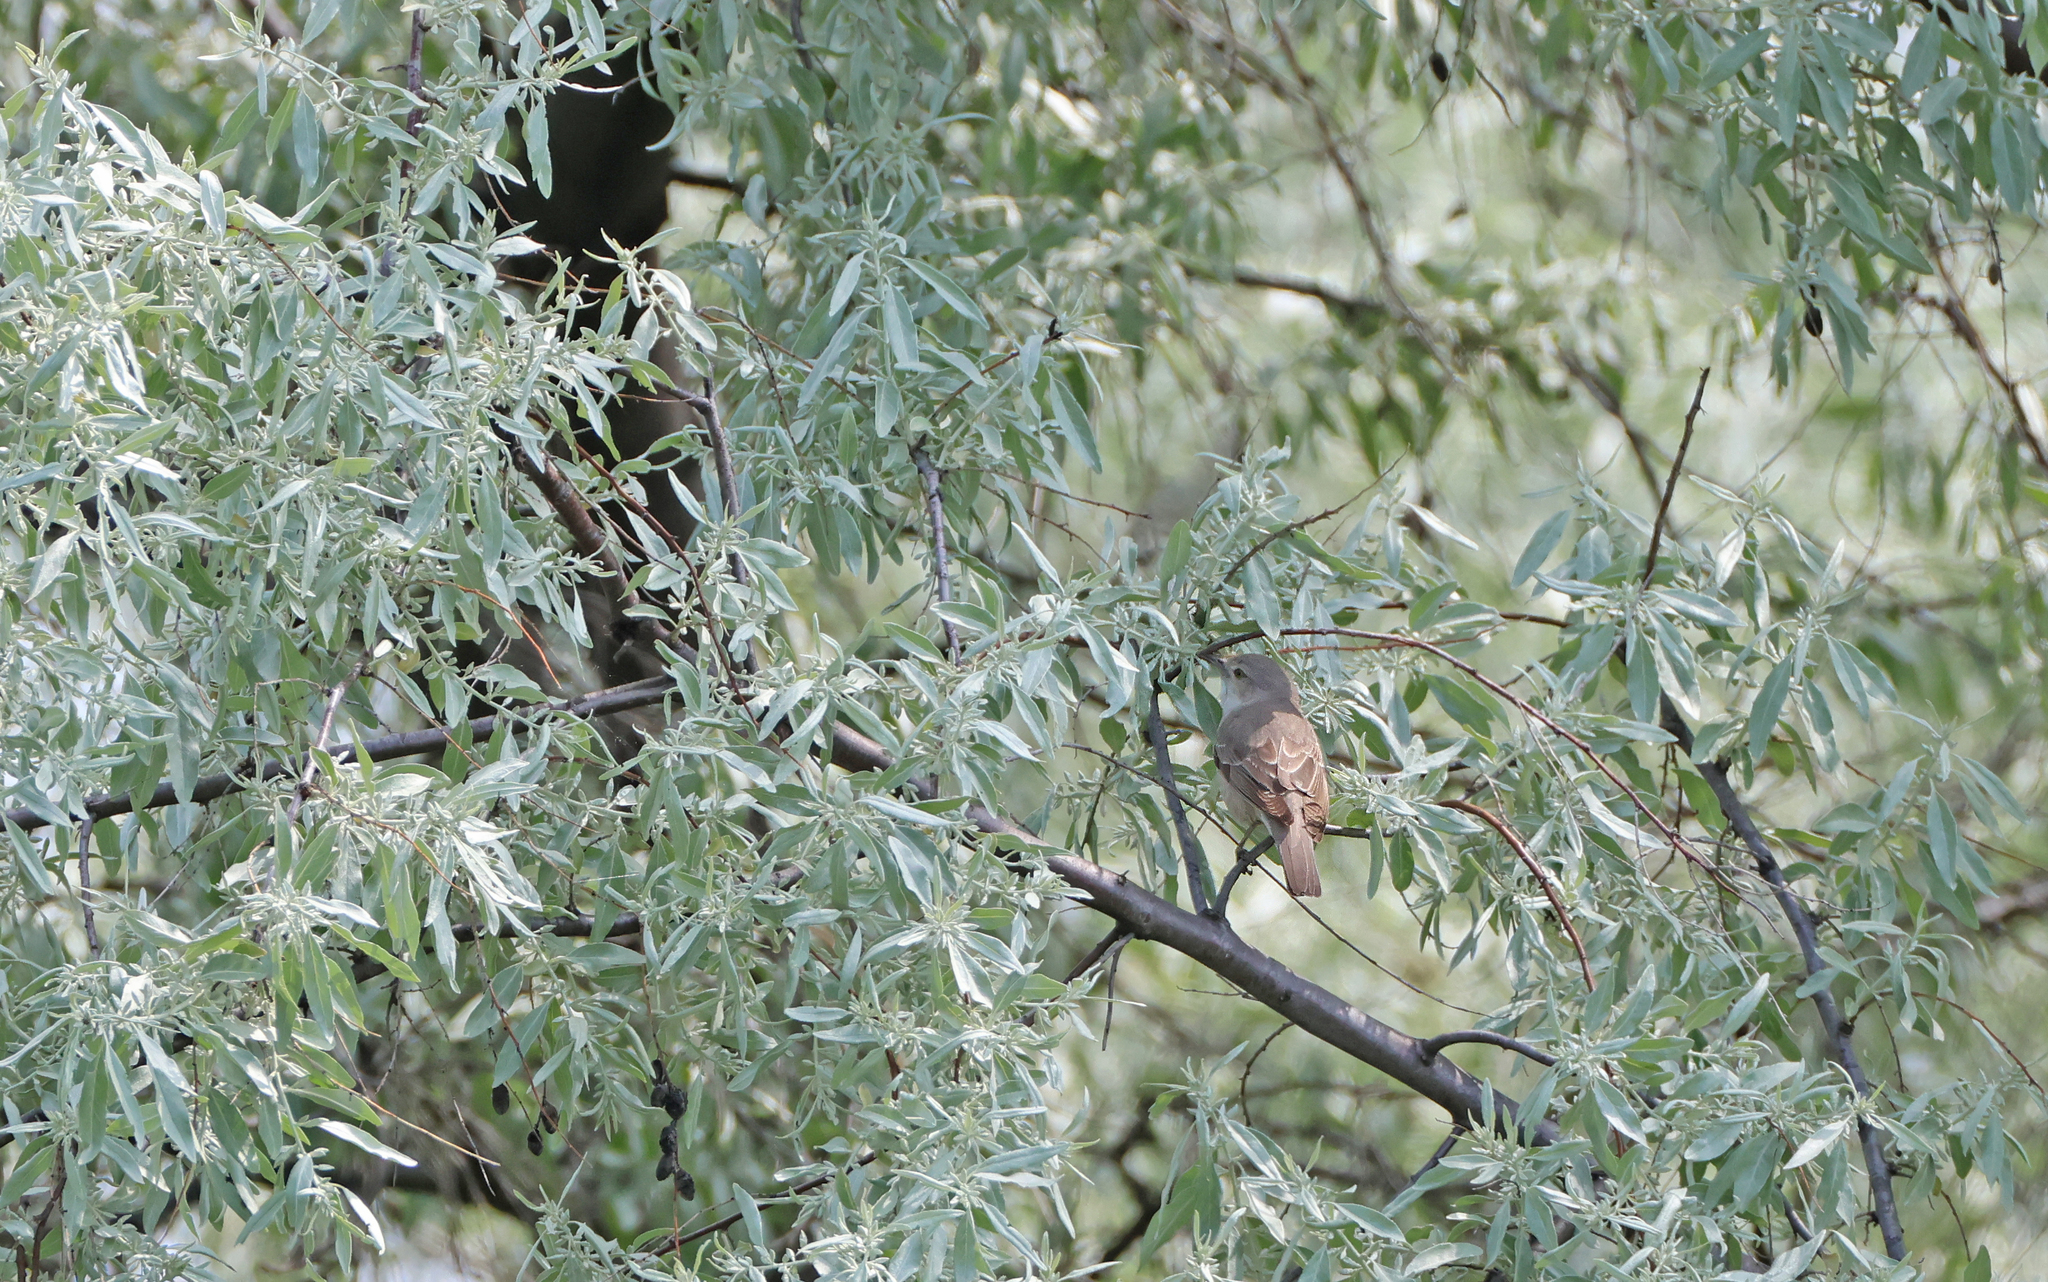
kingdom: Animalia
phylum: Chordata
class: Aves
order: Passeriformes
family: Sylviidae
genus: Sylvia
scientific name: Sylvia nisoria
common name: Barred warbler
